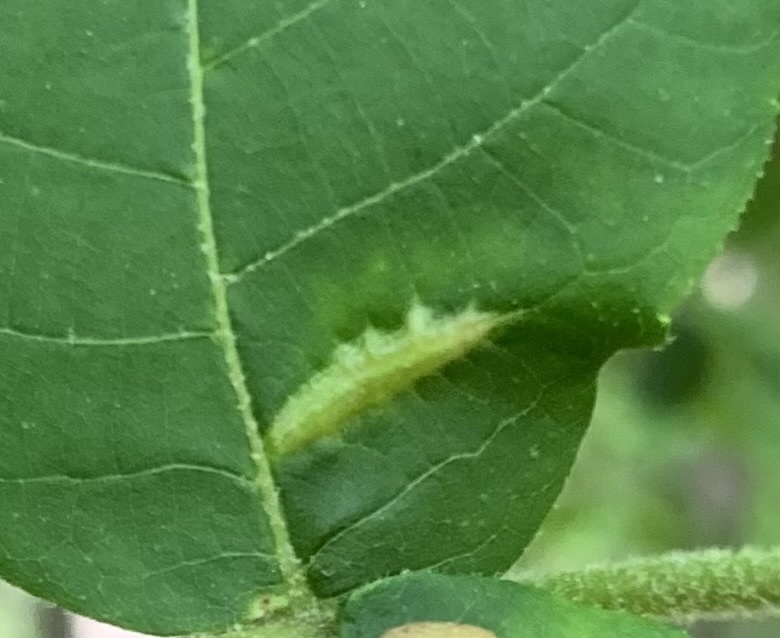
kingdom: Animalia
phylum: Arthropoda
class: Insecta
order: Hemiptera
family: Phylloxeridae
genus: Phylloxera
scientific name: Phylloxera caryaevenae
